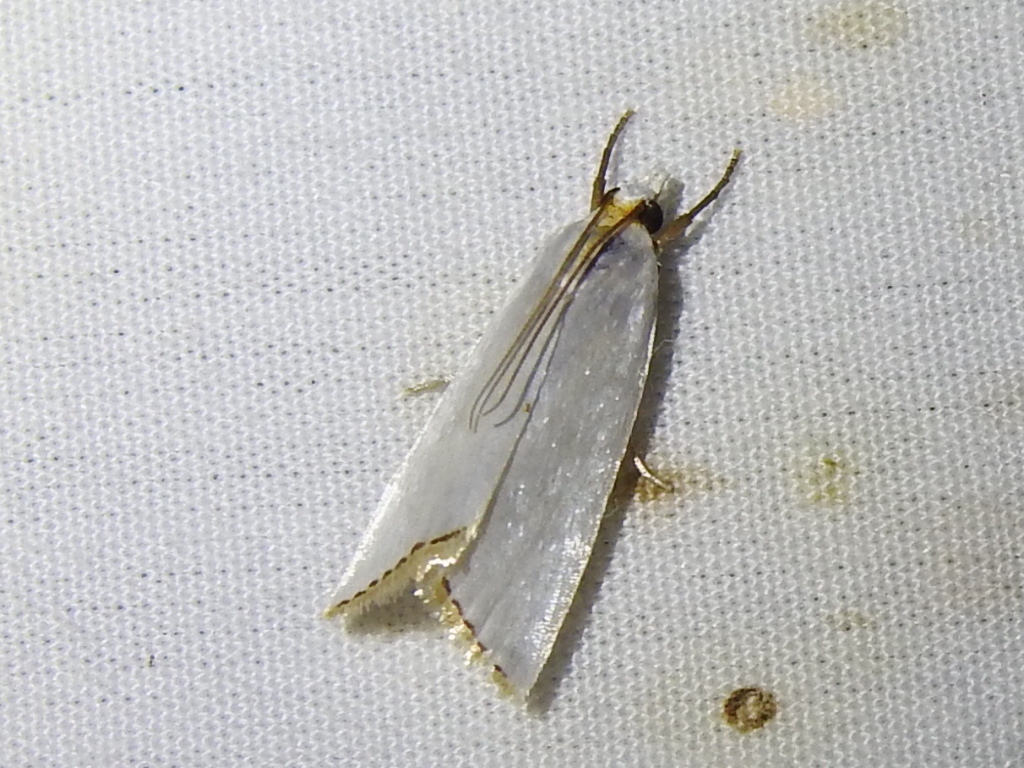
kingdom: Animalia
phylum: Arthropoda
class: Insecta
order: Lepidoptera
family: Crambidae
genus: Argyria
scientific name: Argyria nivalis
